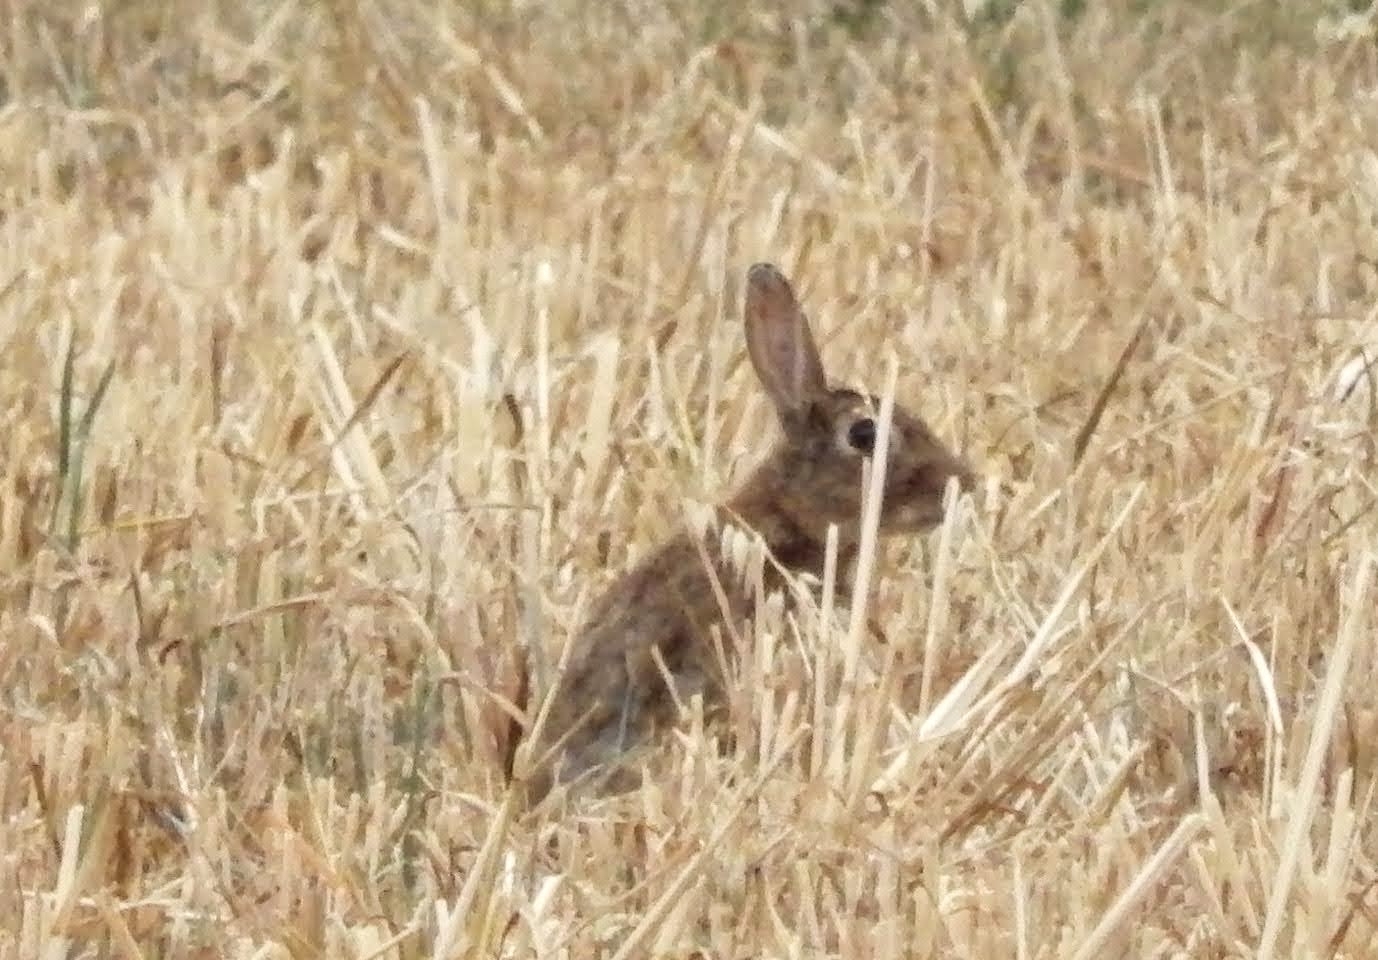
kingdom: Animalia
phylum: Chordata
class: Mammalia
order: Lagomorpha
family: Leporidae
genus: Oryctolagus
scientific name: Oryctolagus cuniculus
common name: European rabbit
